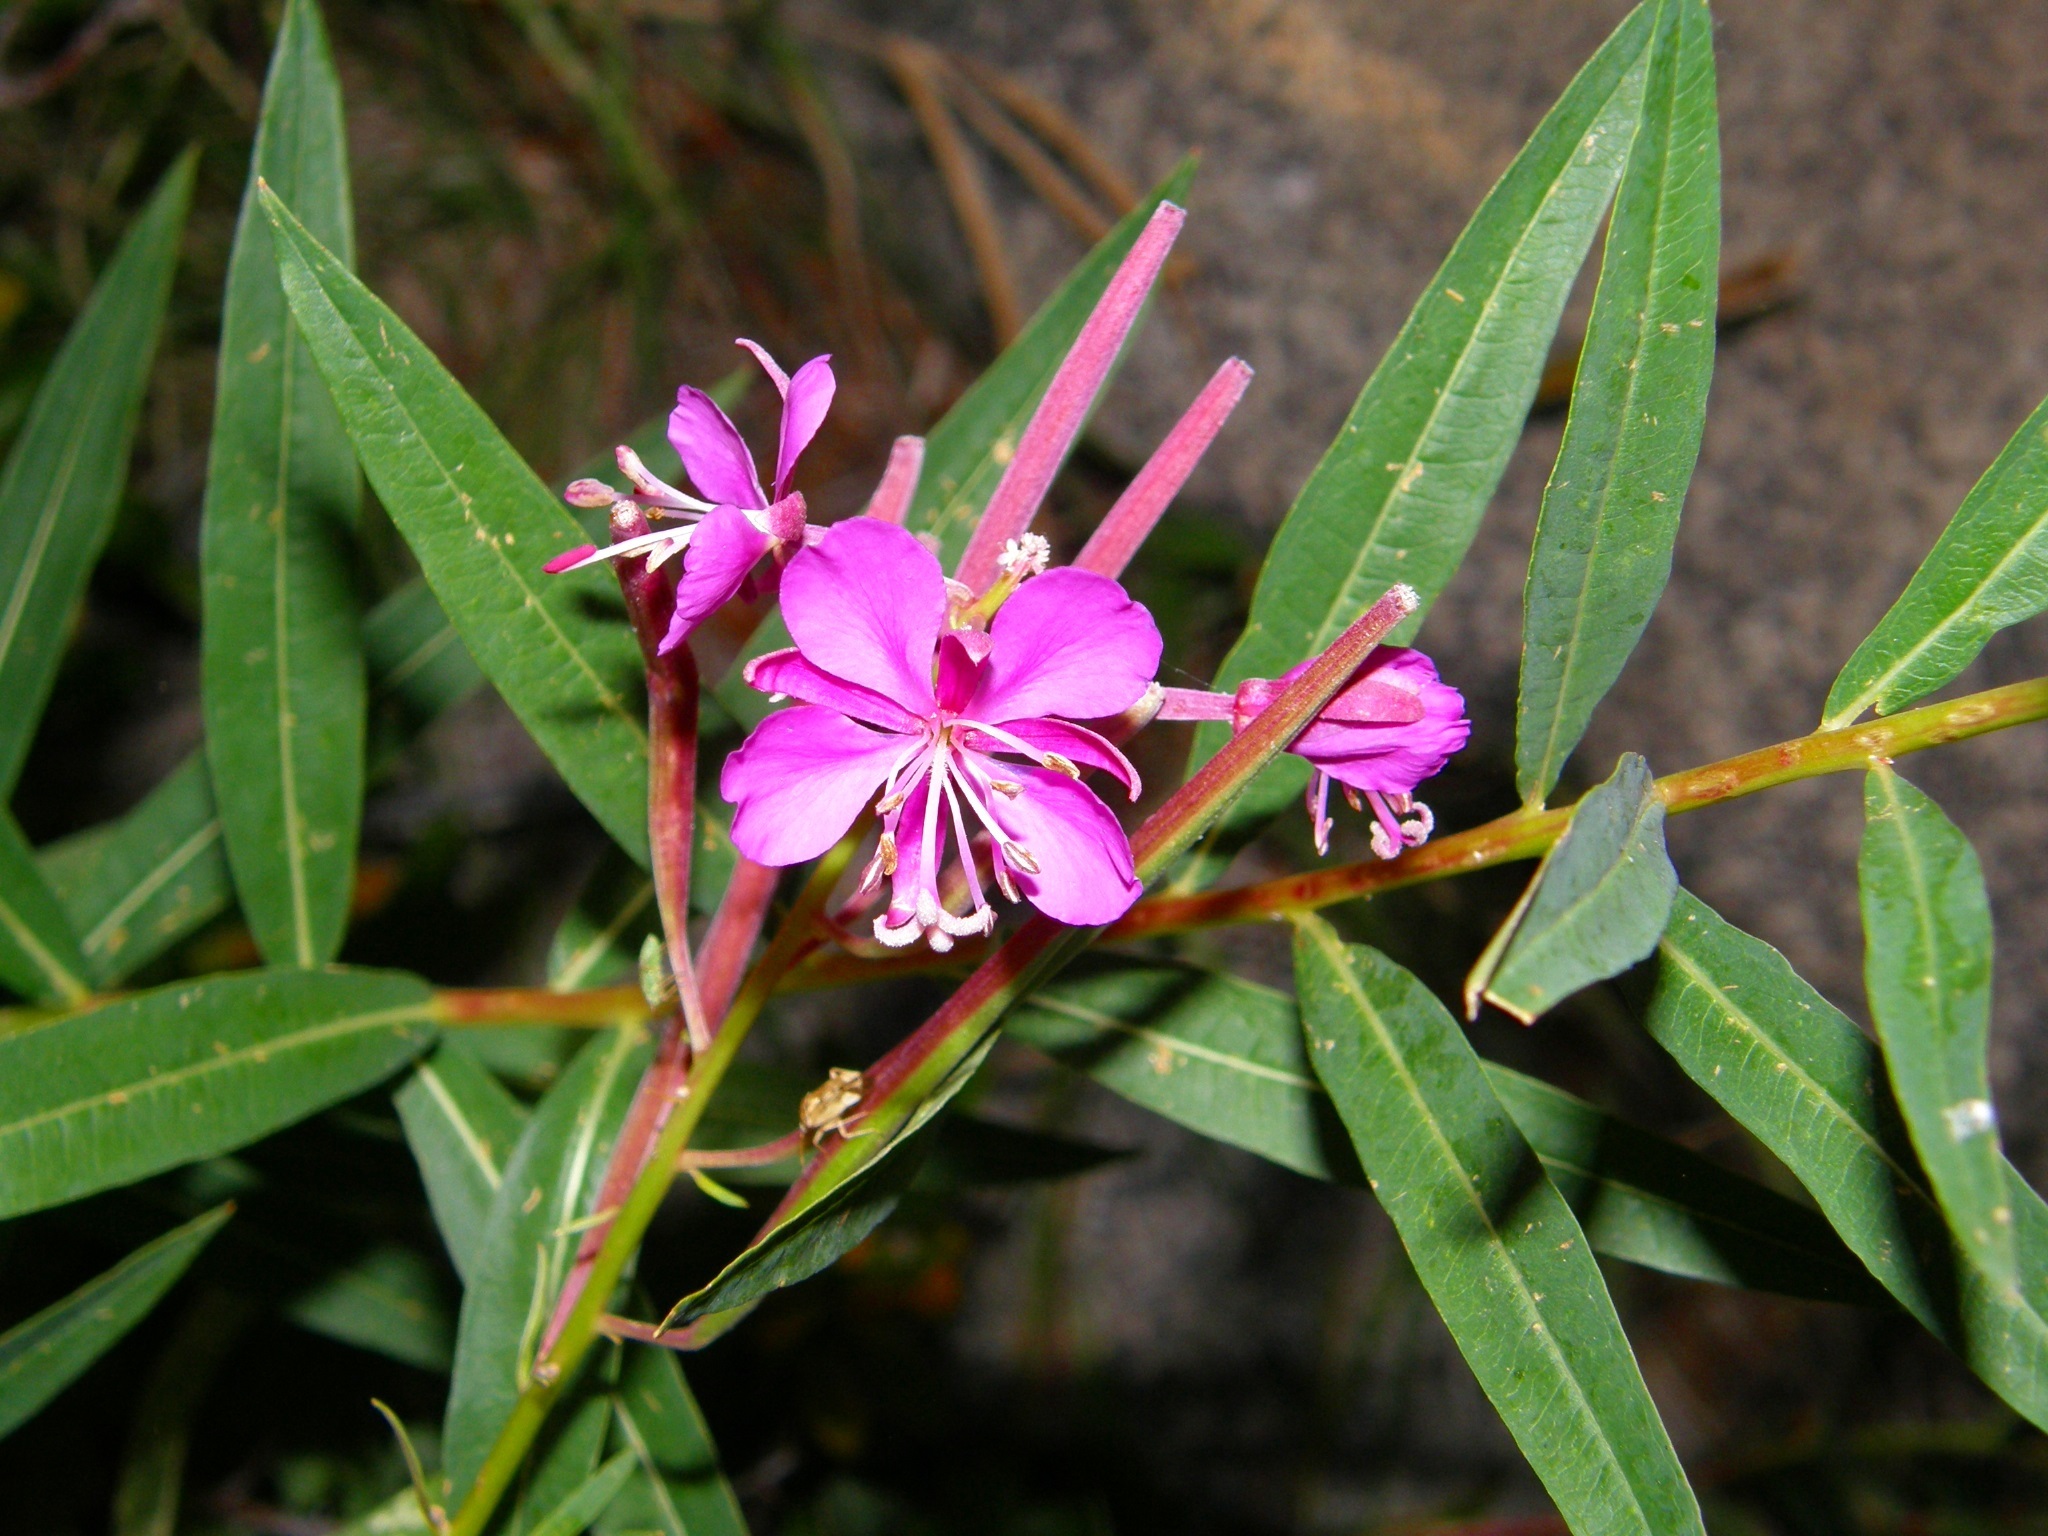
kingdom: Plantae
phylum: Tracheophyta
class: Magnoliopsida
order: Myrtales
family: Onagraceae
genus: Chamaenerion
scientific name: Chamaenerion angustifolium
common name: Fireweed
